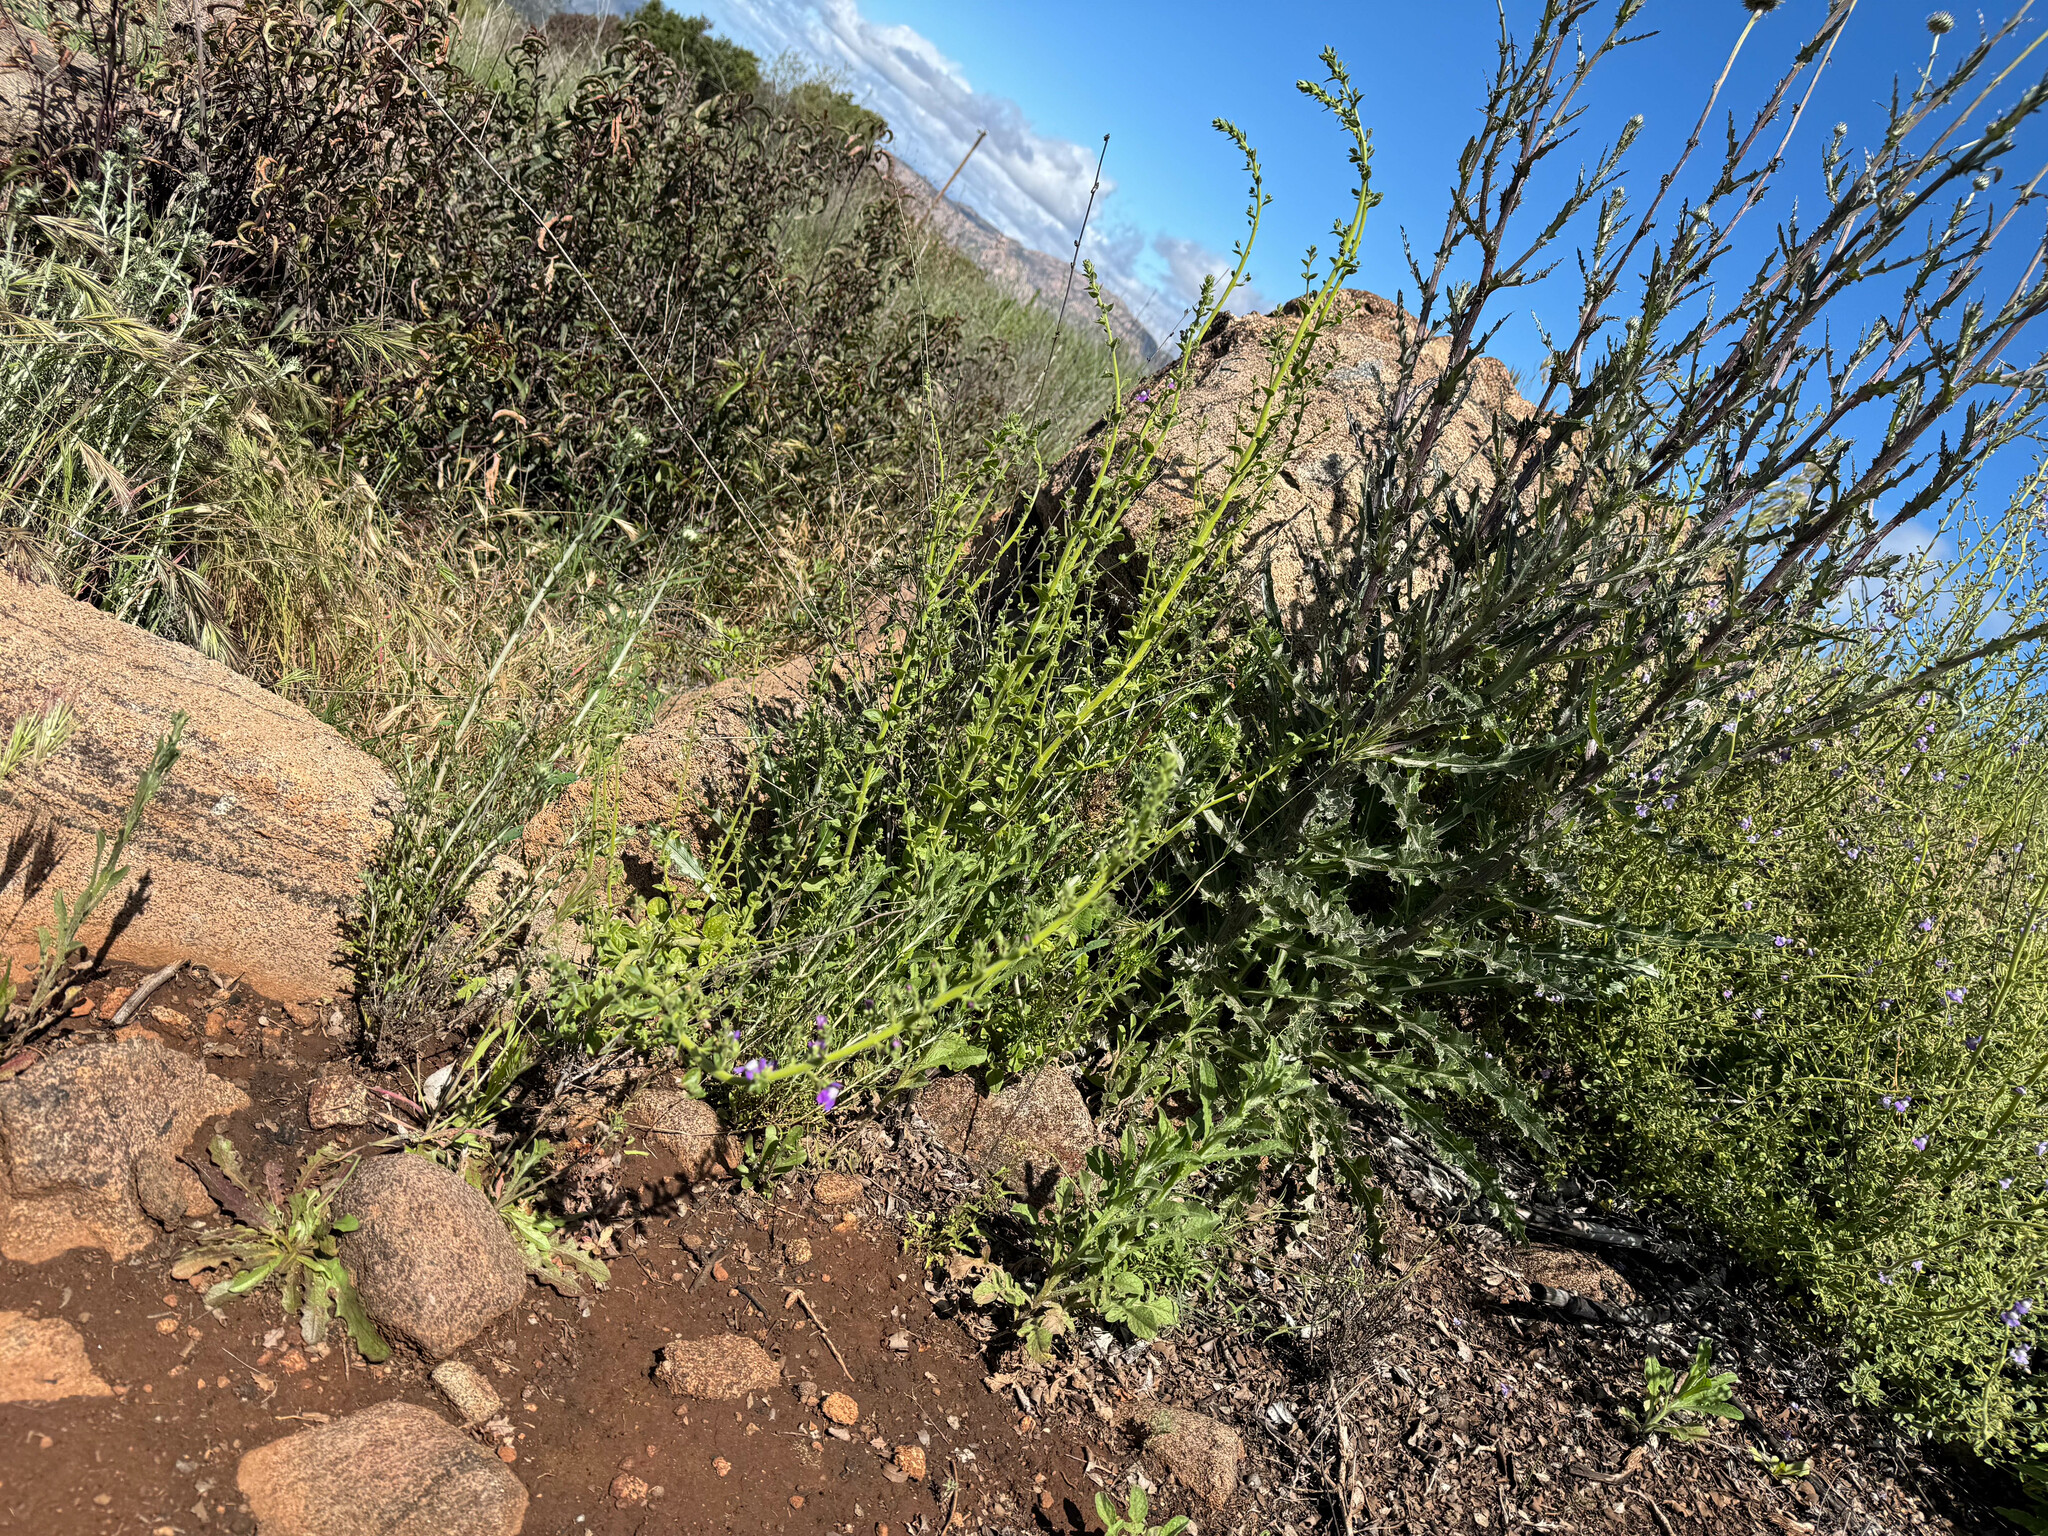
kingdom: Plantae
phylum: Tracheophyta
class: Magnoliopsida
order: Lamiales
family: Plantaginaceae
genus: Neogaerrhinum
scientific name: Neogaerrhinum strictum
